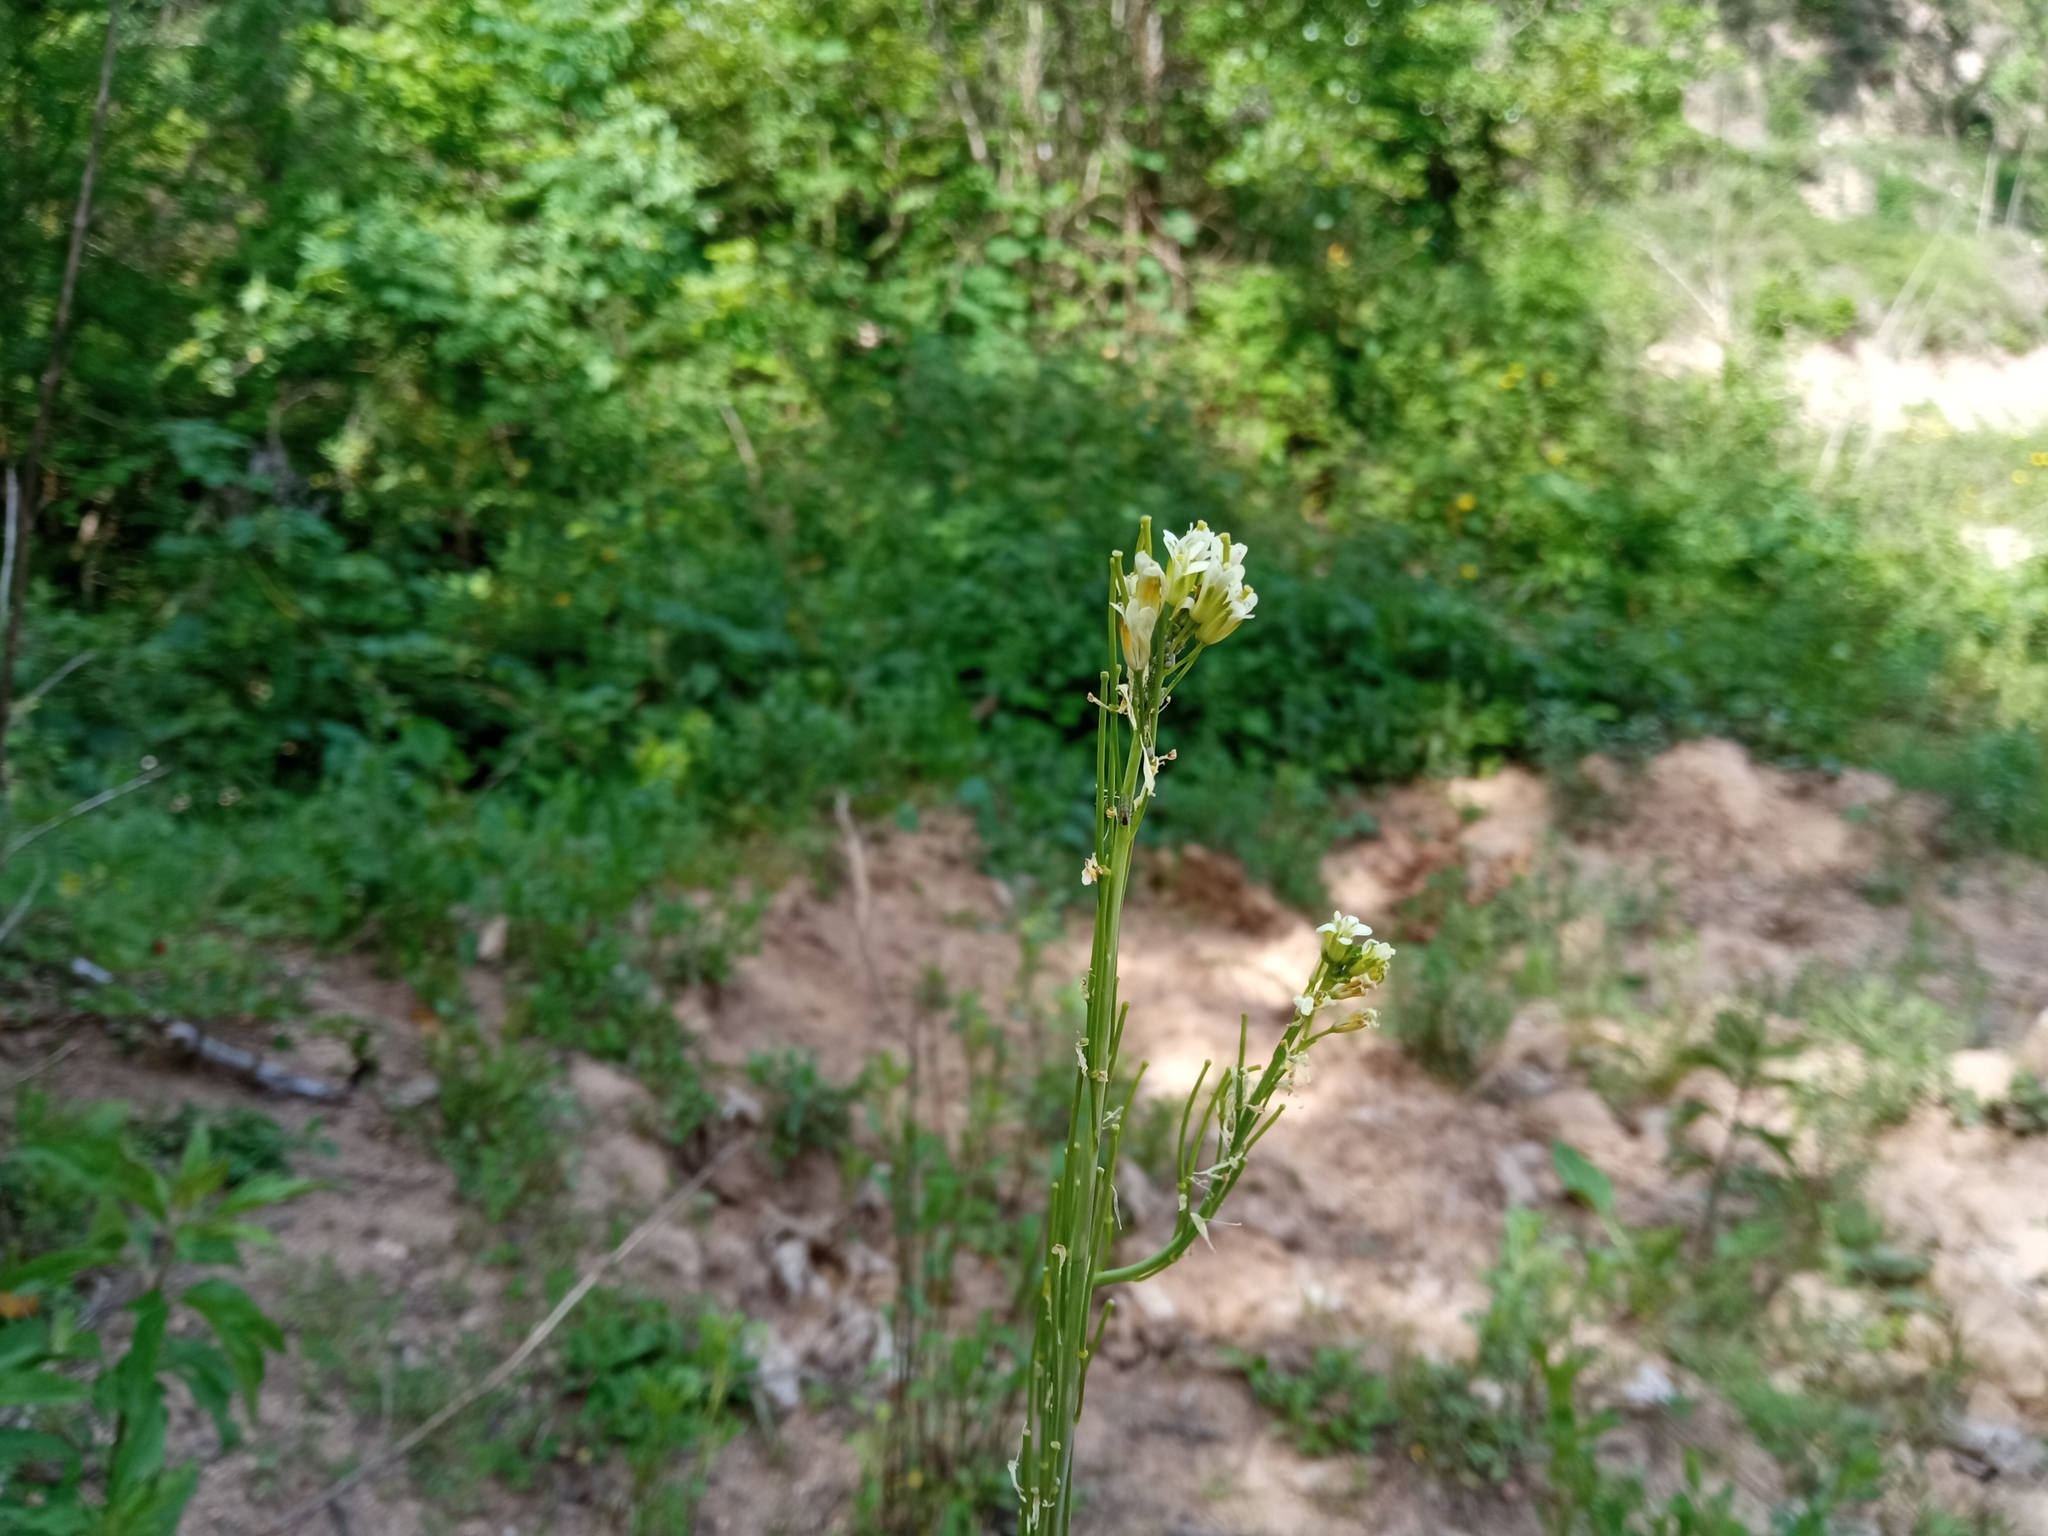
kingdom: Plantae
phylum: Tracheophyta
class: Magnoliopsida
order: Brassicales
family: Brassicaceae
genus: Turritis
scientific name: Turritis glabra
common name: Tower rockcress
